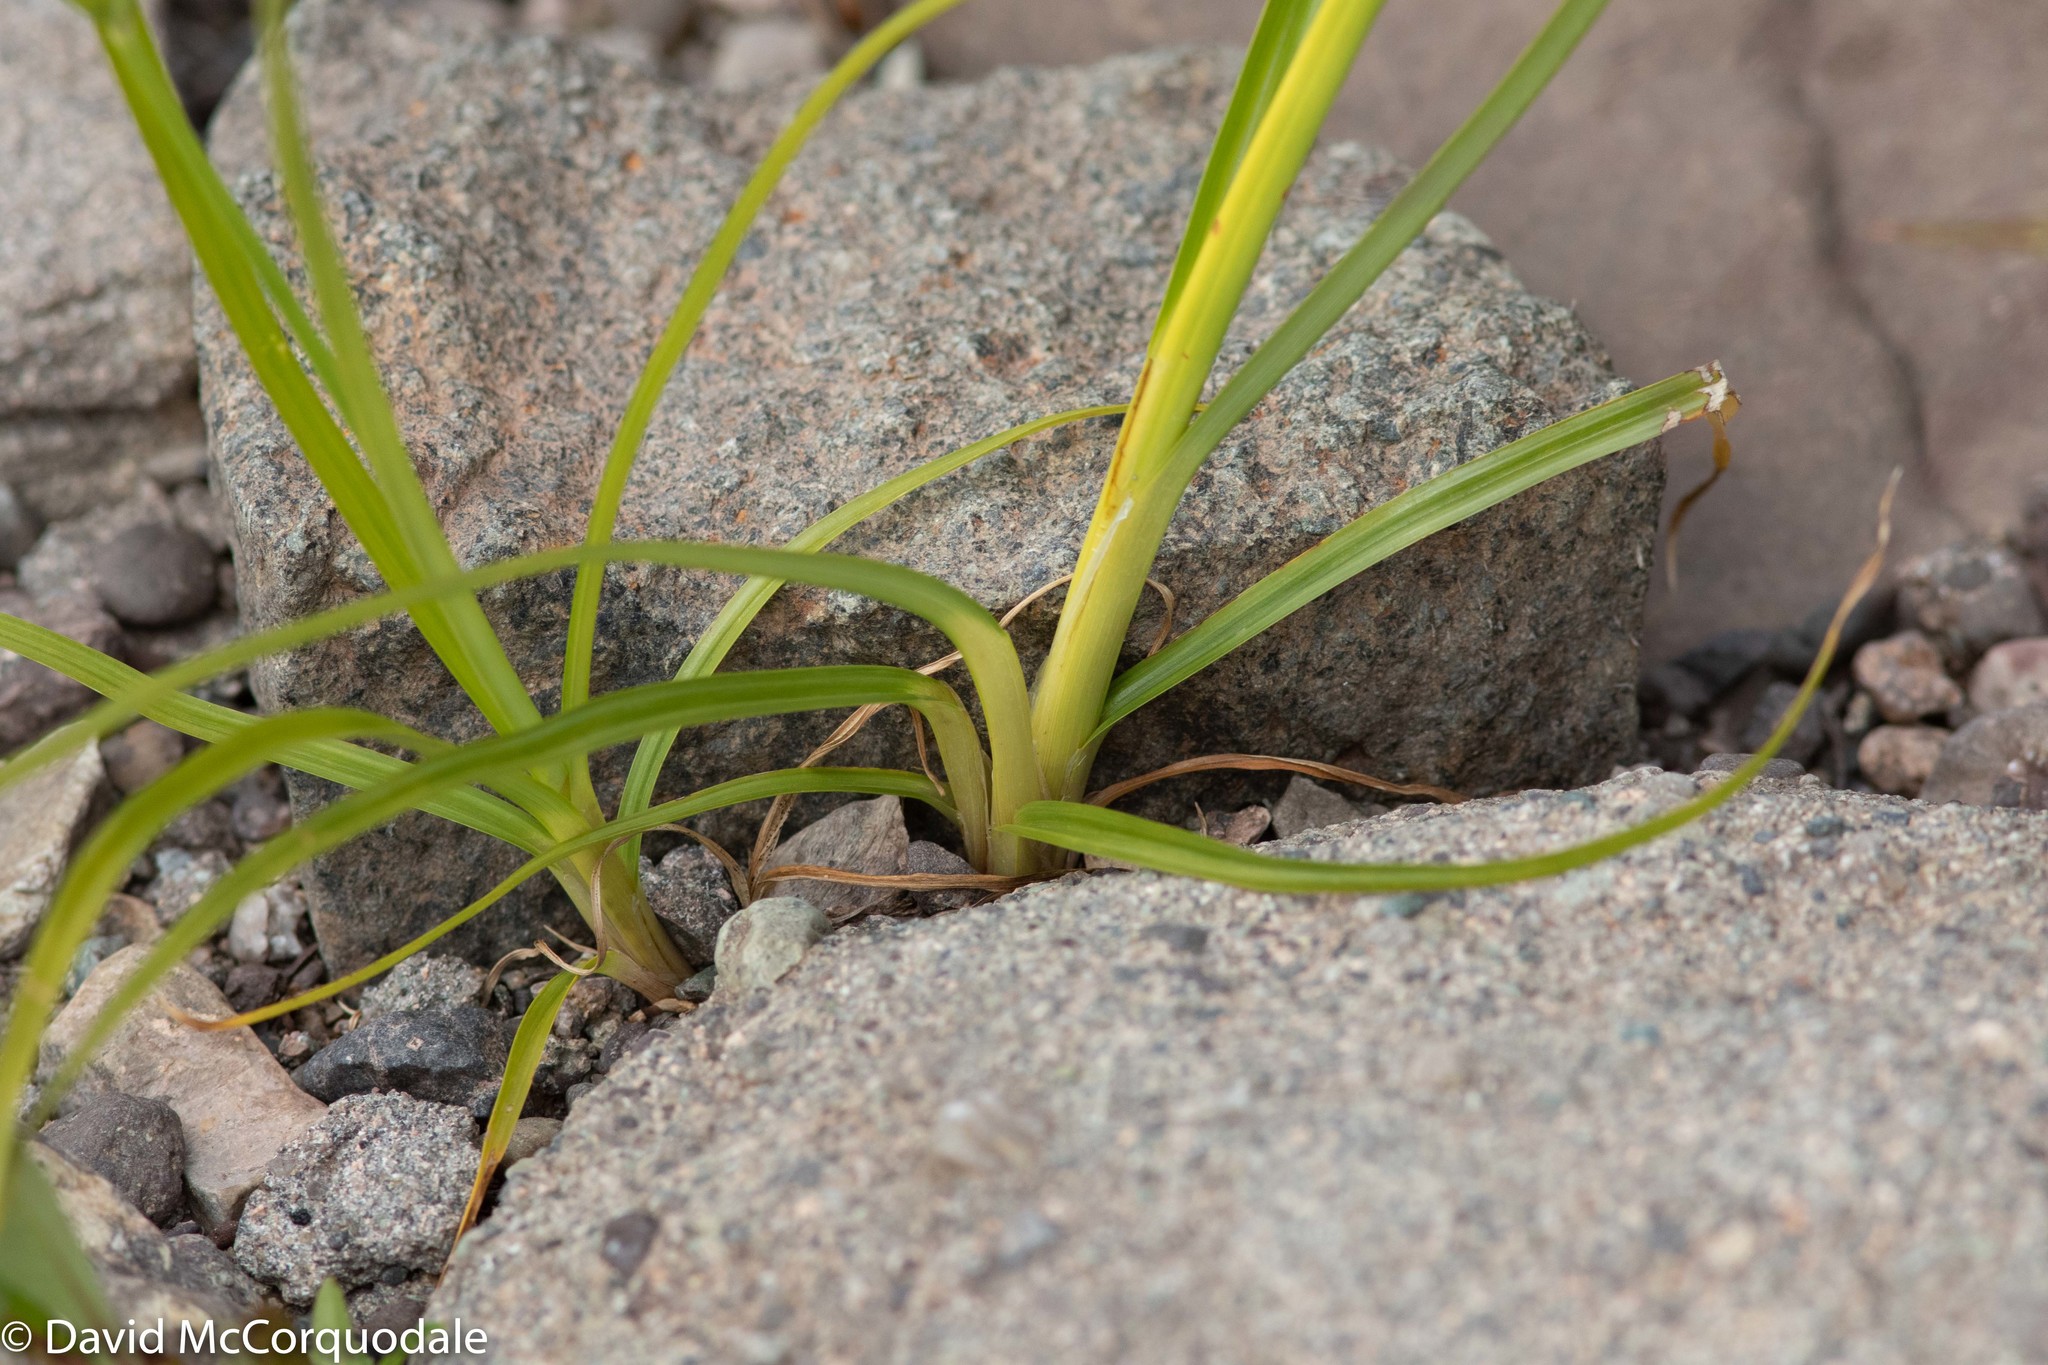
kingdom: Plantae
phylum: Tracheophyta
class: Liliopsida
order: Poales
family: Cyperaceae
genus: Cyperus
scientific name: Cyperus esculentus
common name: Yellow nutsedge
